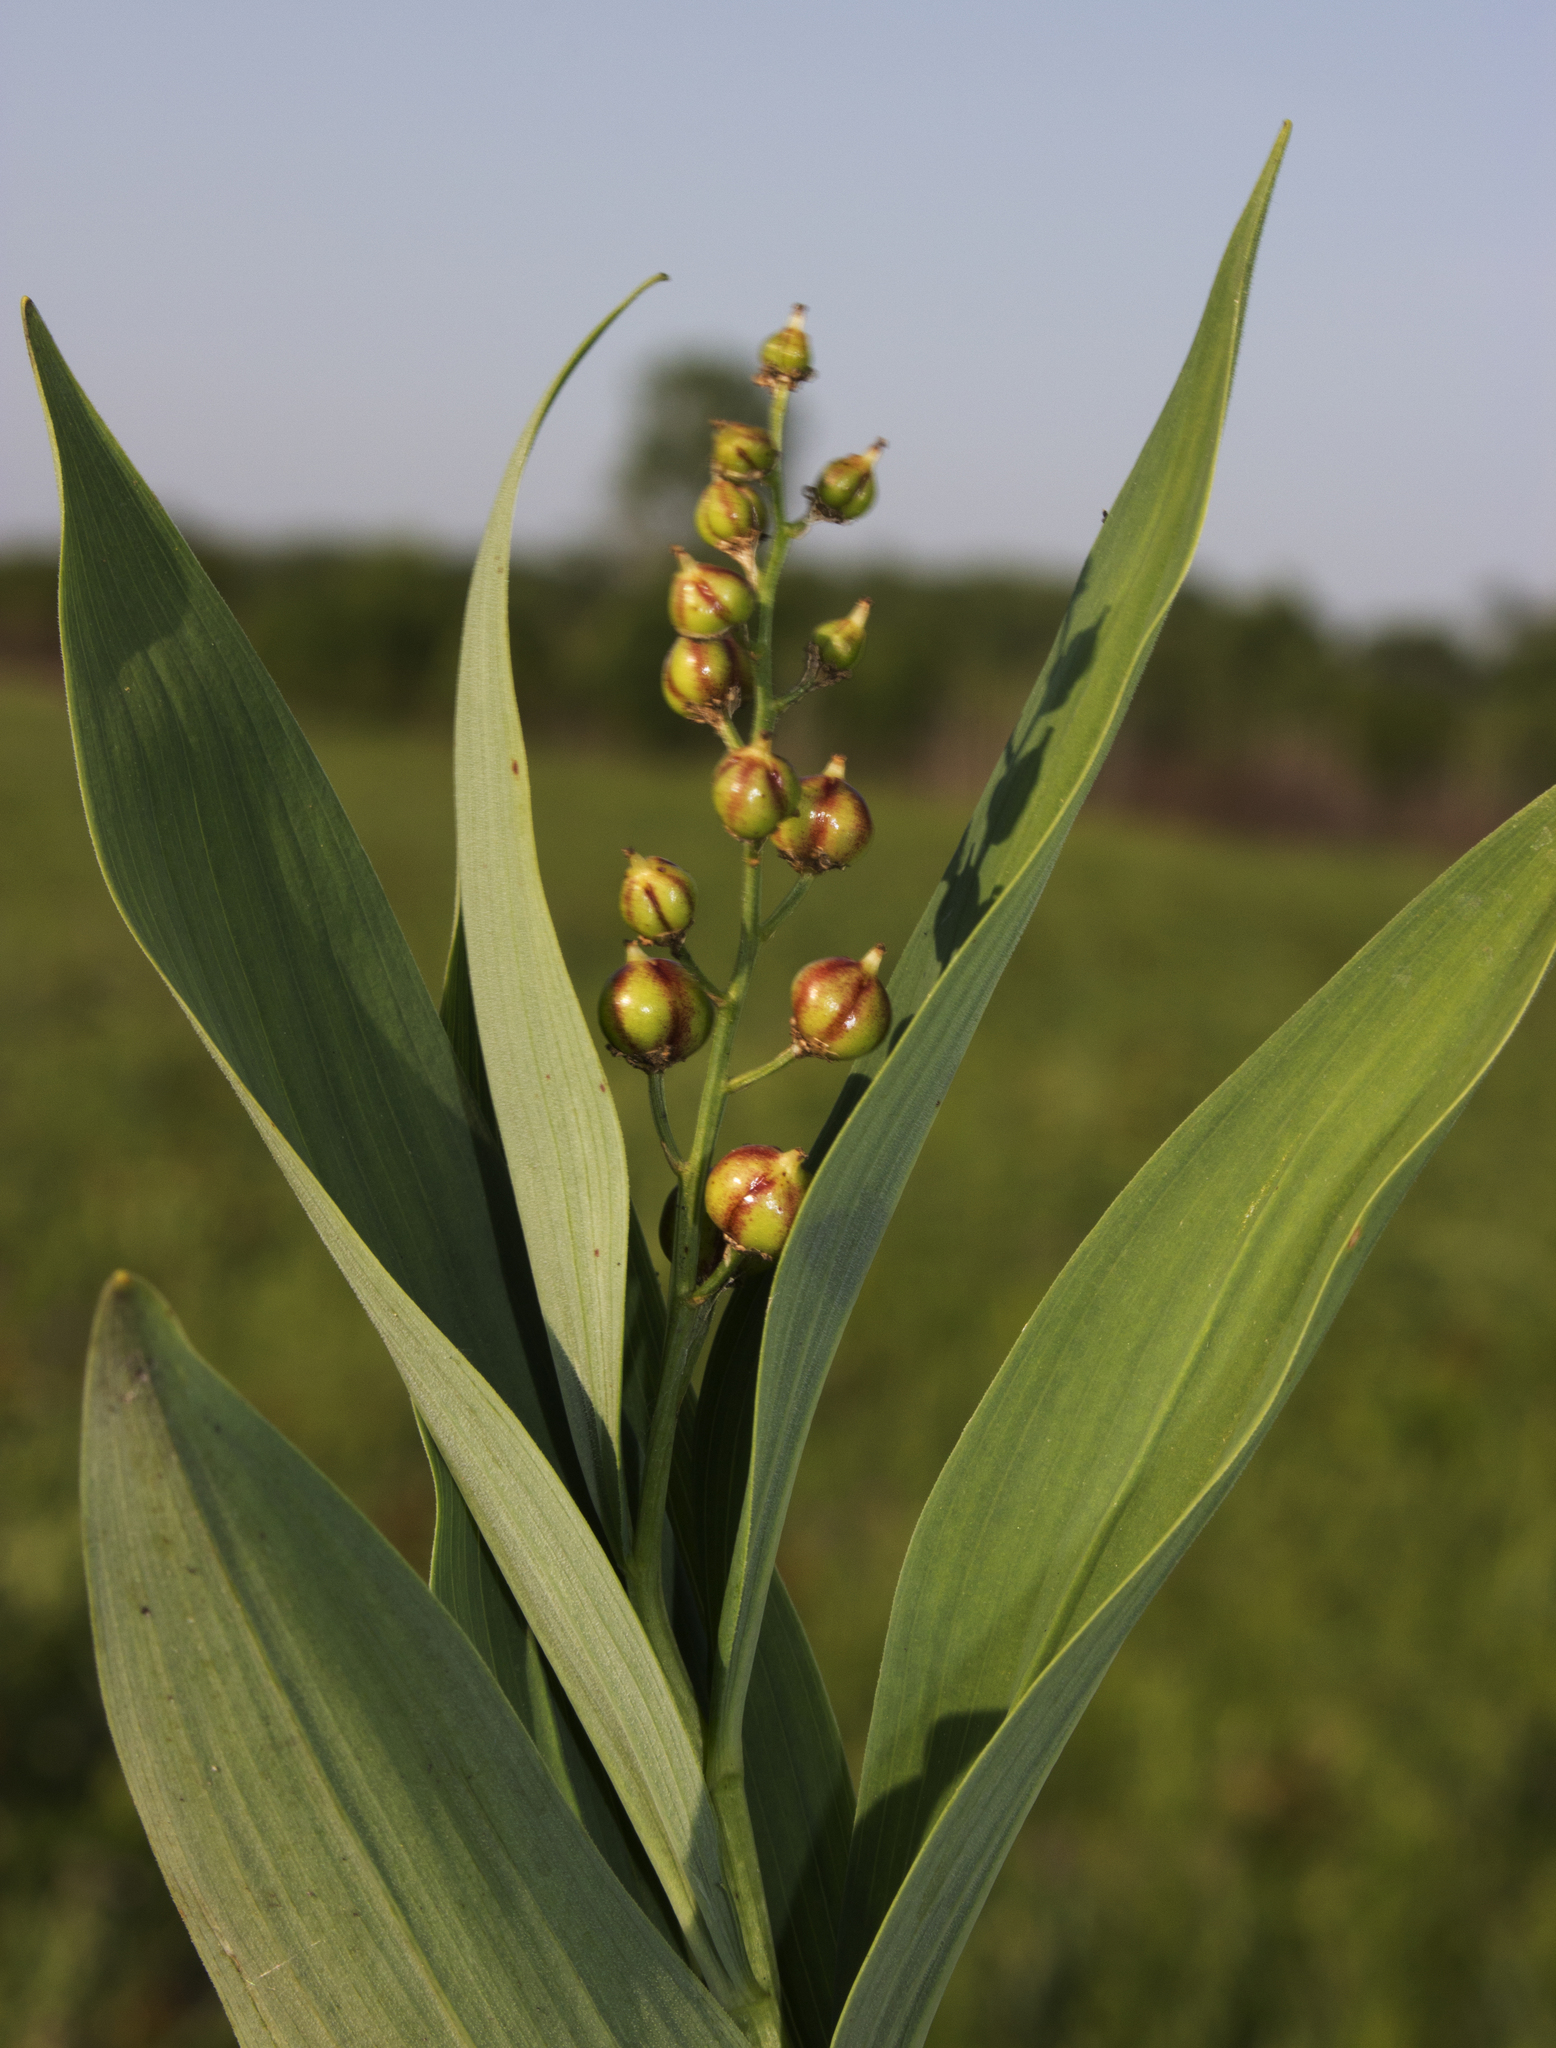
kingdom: Plantae
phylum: Tracheophyta
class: Liliopsida
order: Asparagales
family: Asparagaceae
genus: Maianthemum
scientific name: Maianthemum stellatum
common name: Little false solomon's seal
